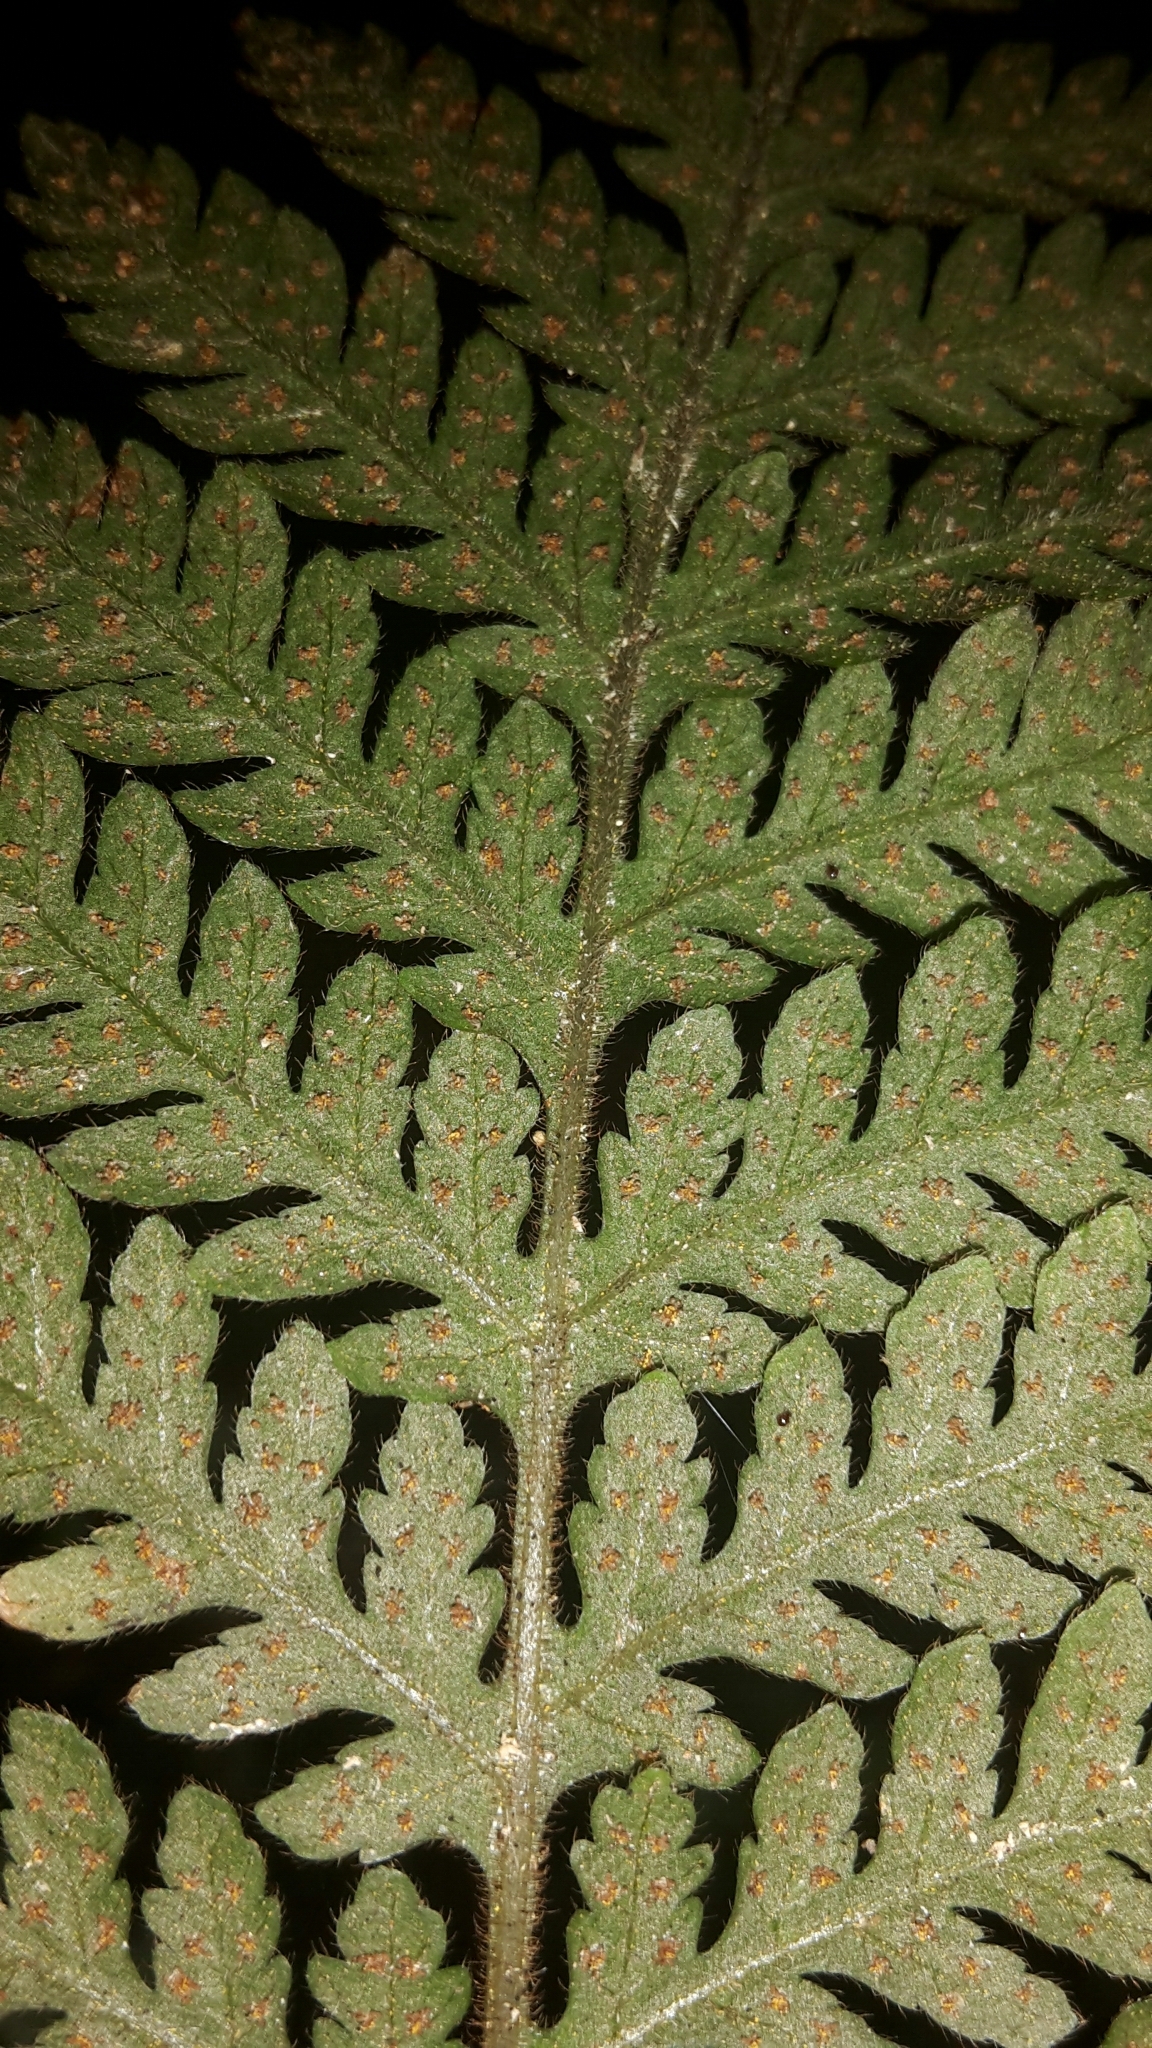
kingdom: Plantae
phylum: Tracheophyta
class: Polypodiopsida
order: Polypodiales
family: Dryopteridaceae
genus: Lastreopsis
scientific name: Lastreopsis velutina
